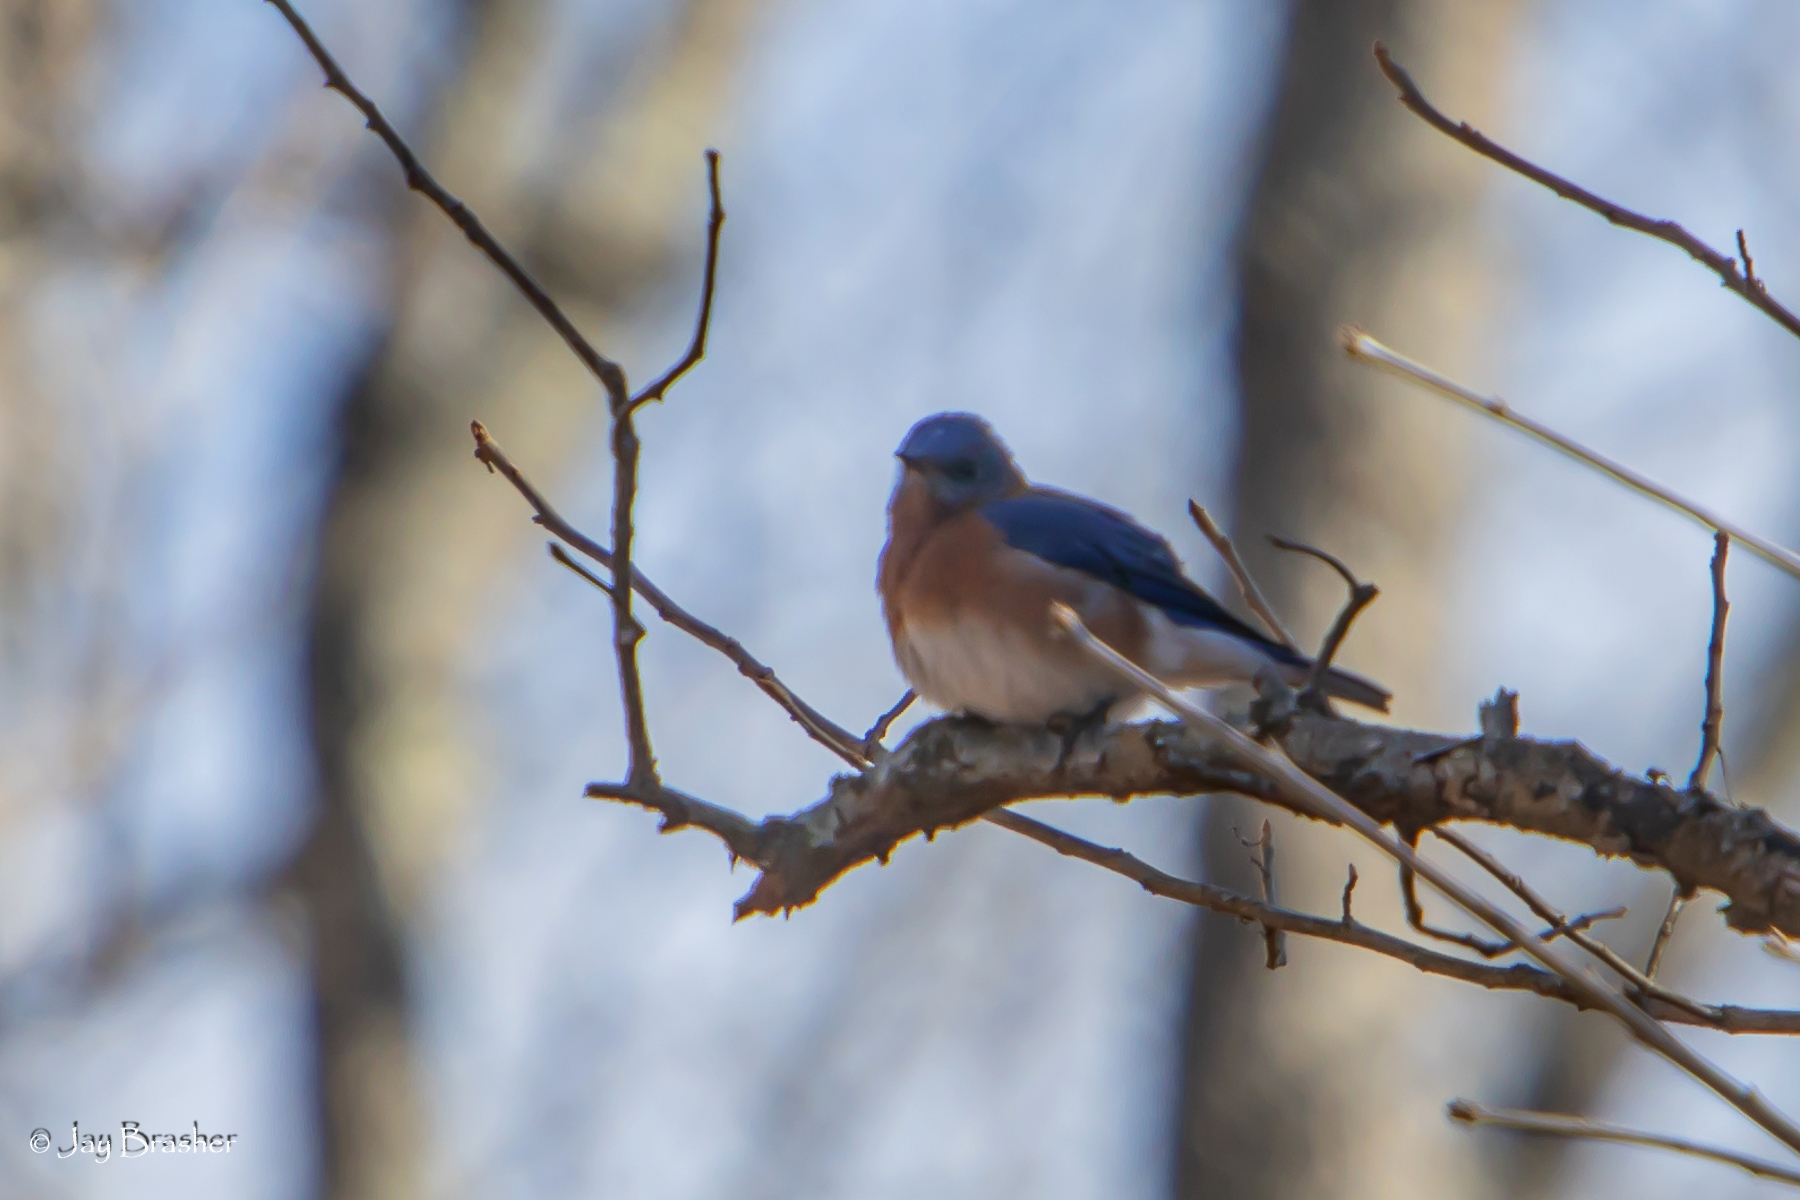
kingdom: Animalia
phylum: Chordata
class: Aves
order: Passeriformes
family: Turdidae
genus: Sialia
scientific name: Sialia sialis
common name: Eastern bluebird
